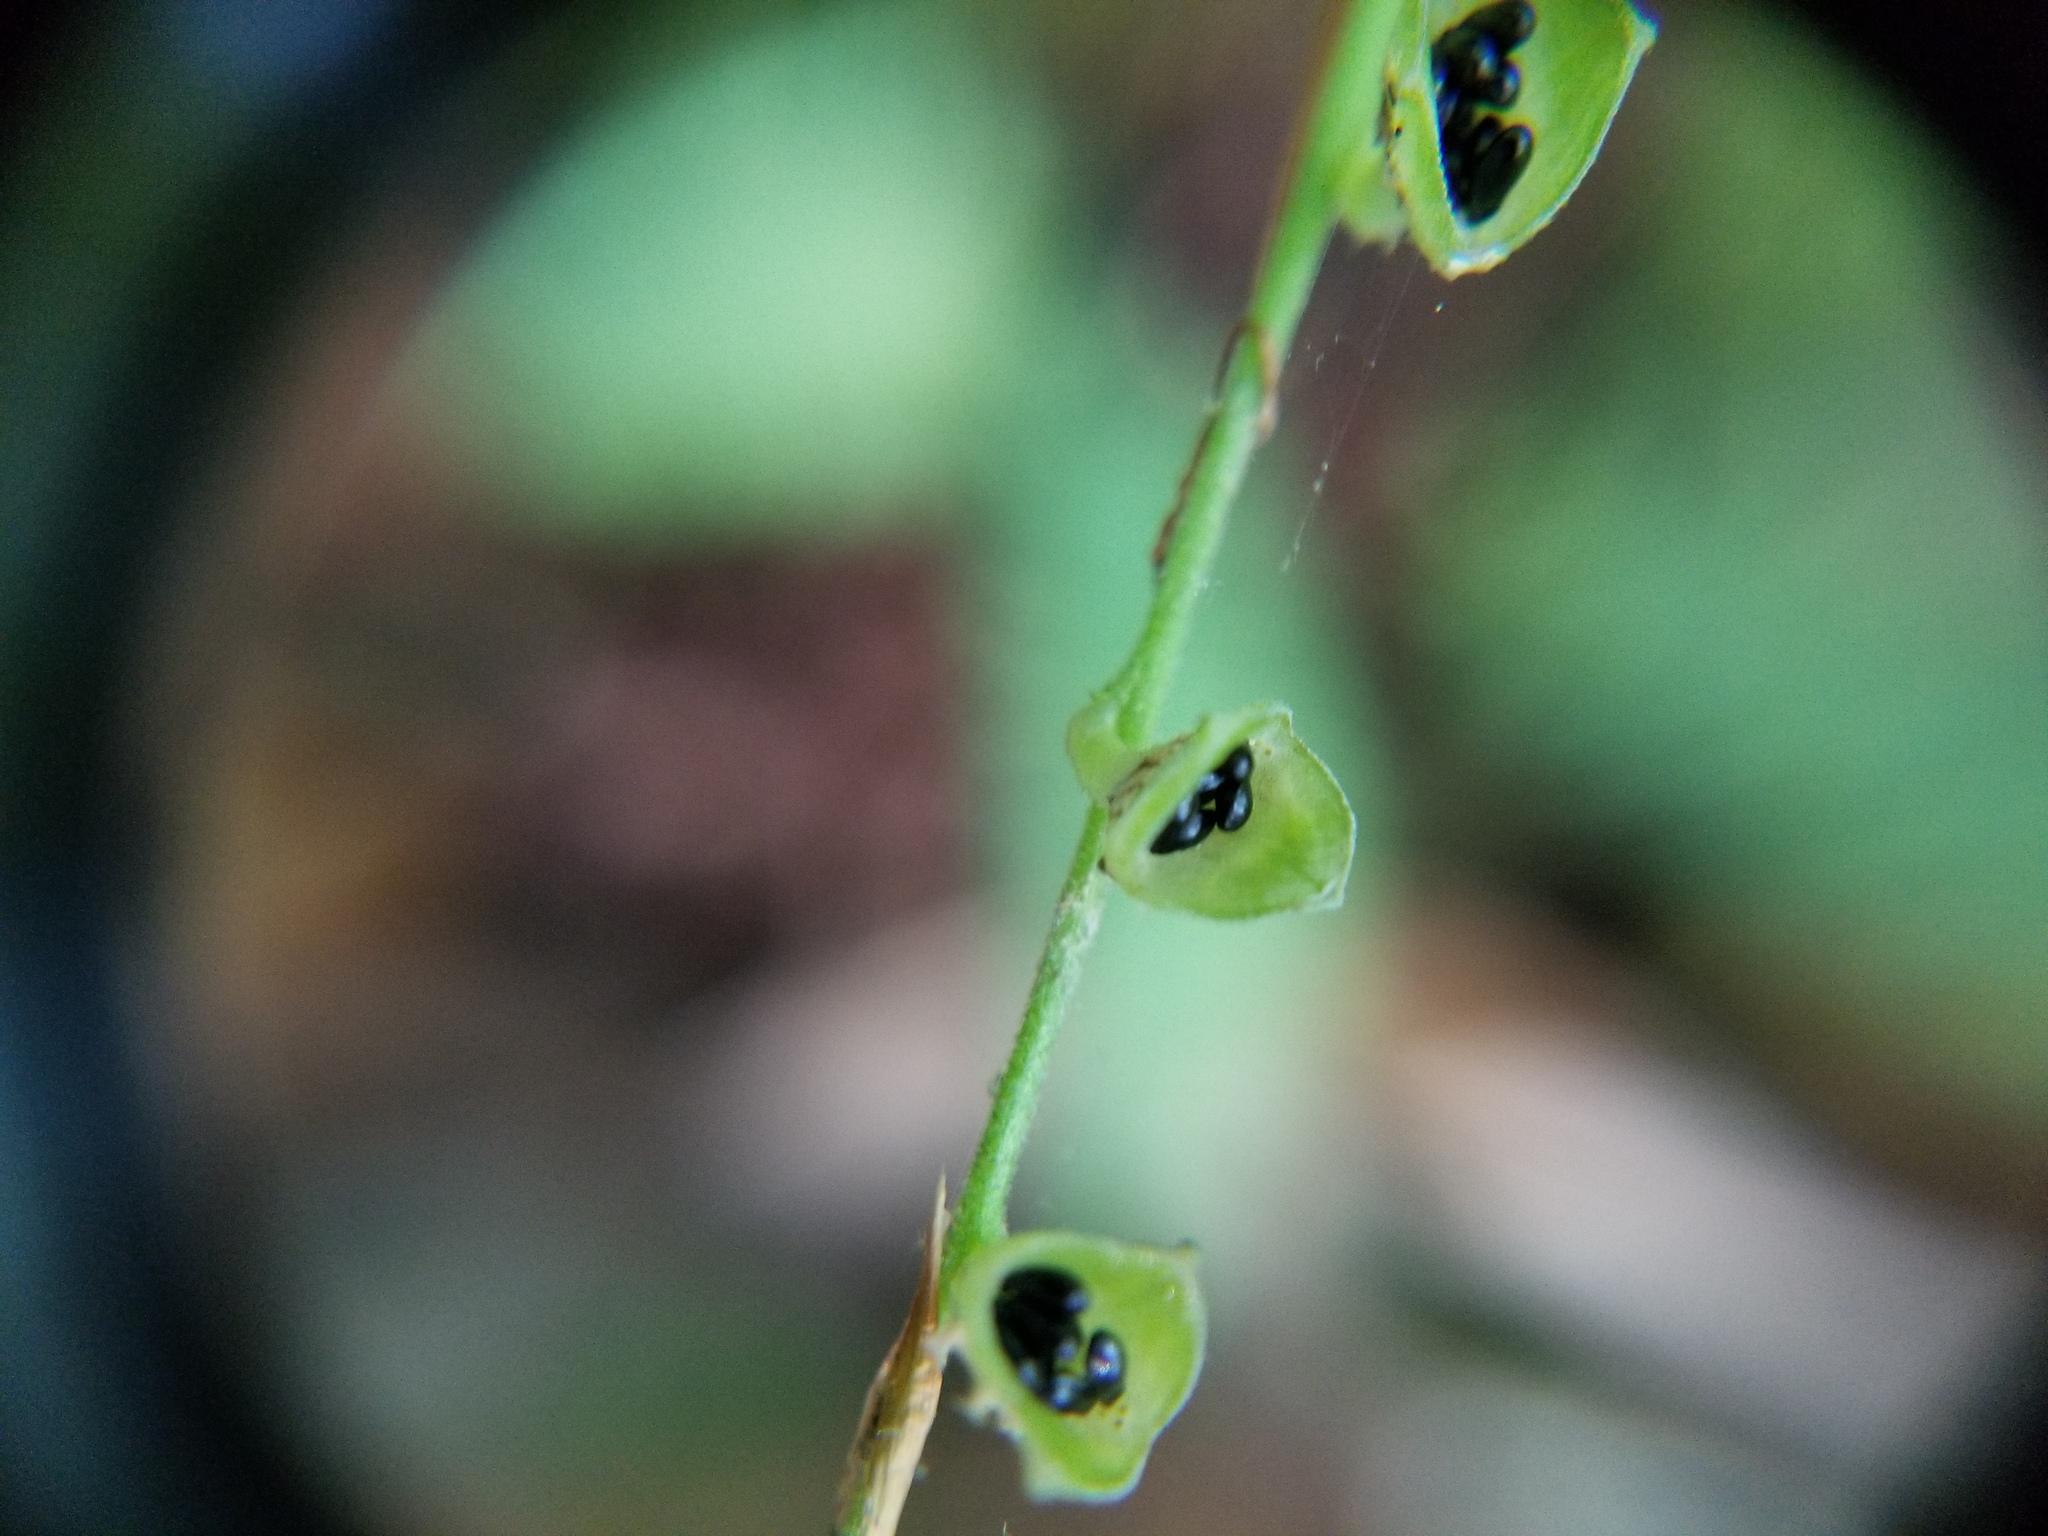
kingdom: Plantae
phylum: Tracheophyta
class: Magnoliopsida
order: Saxifragales
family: Saxifragaceae
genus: Mitella
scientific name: Mitella diphylla
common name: Coolwort
